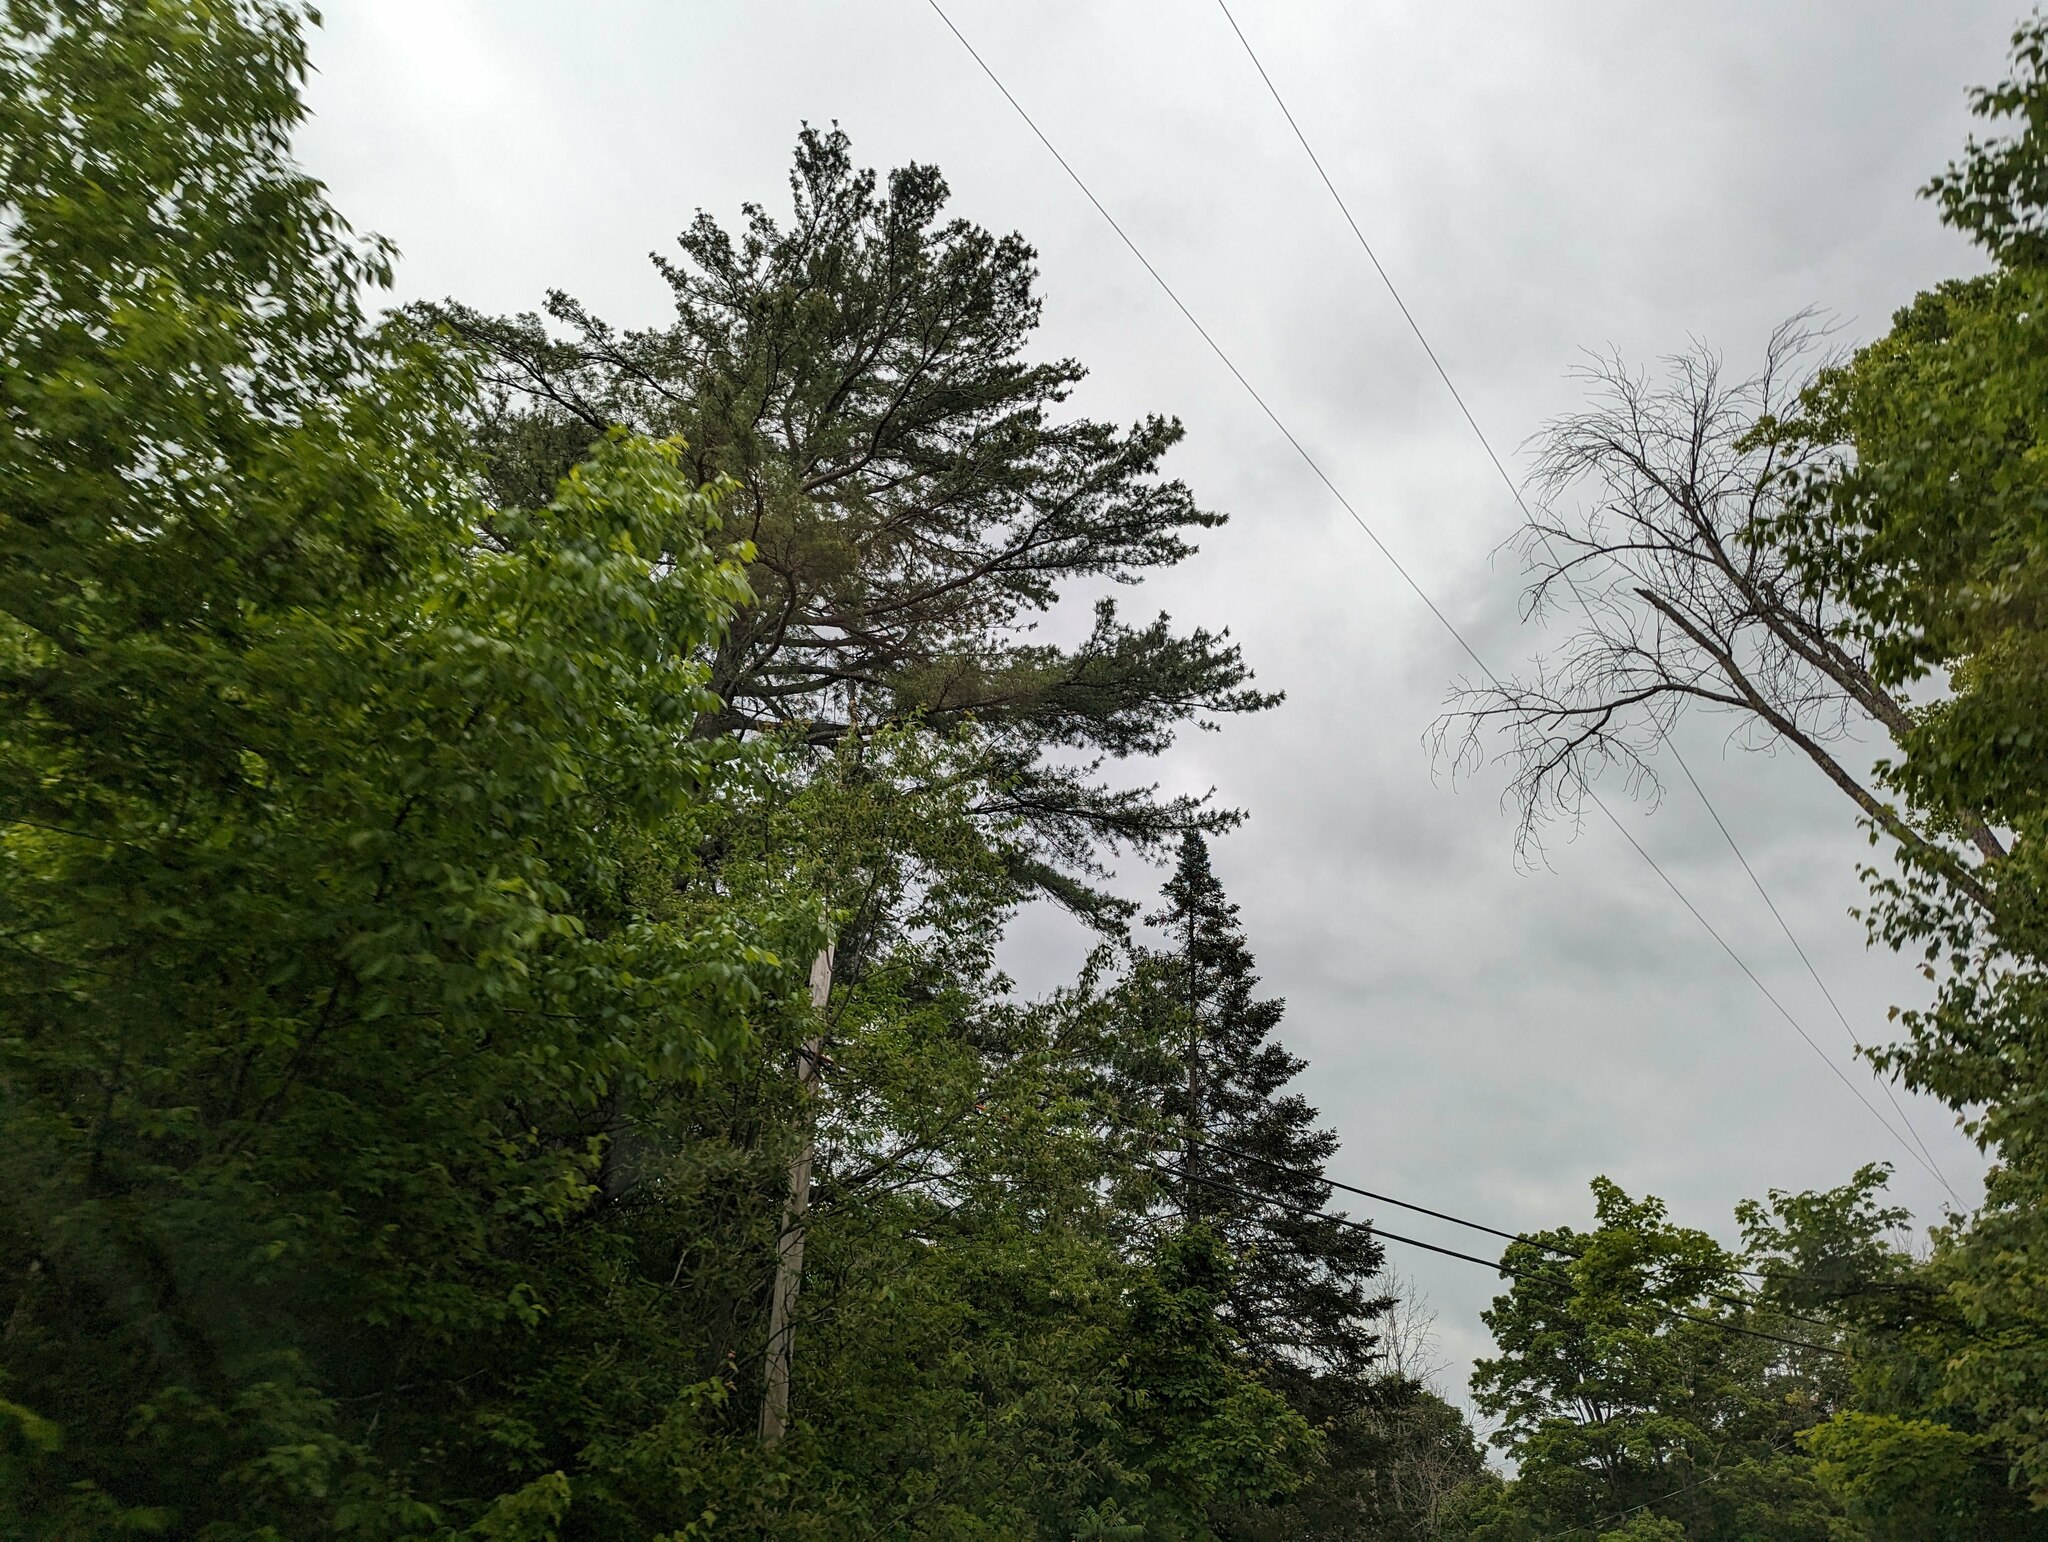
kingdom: Plantae
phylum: Tracheophyta
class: Pinopsida
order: Pinales
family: Pinaceae
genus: Pinus
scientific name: Pinus strobus
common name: Weymouth pine
